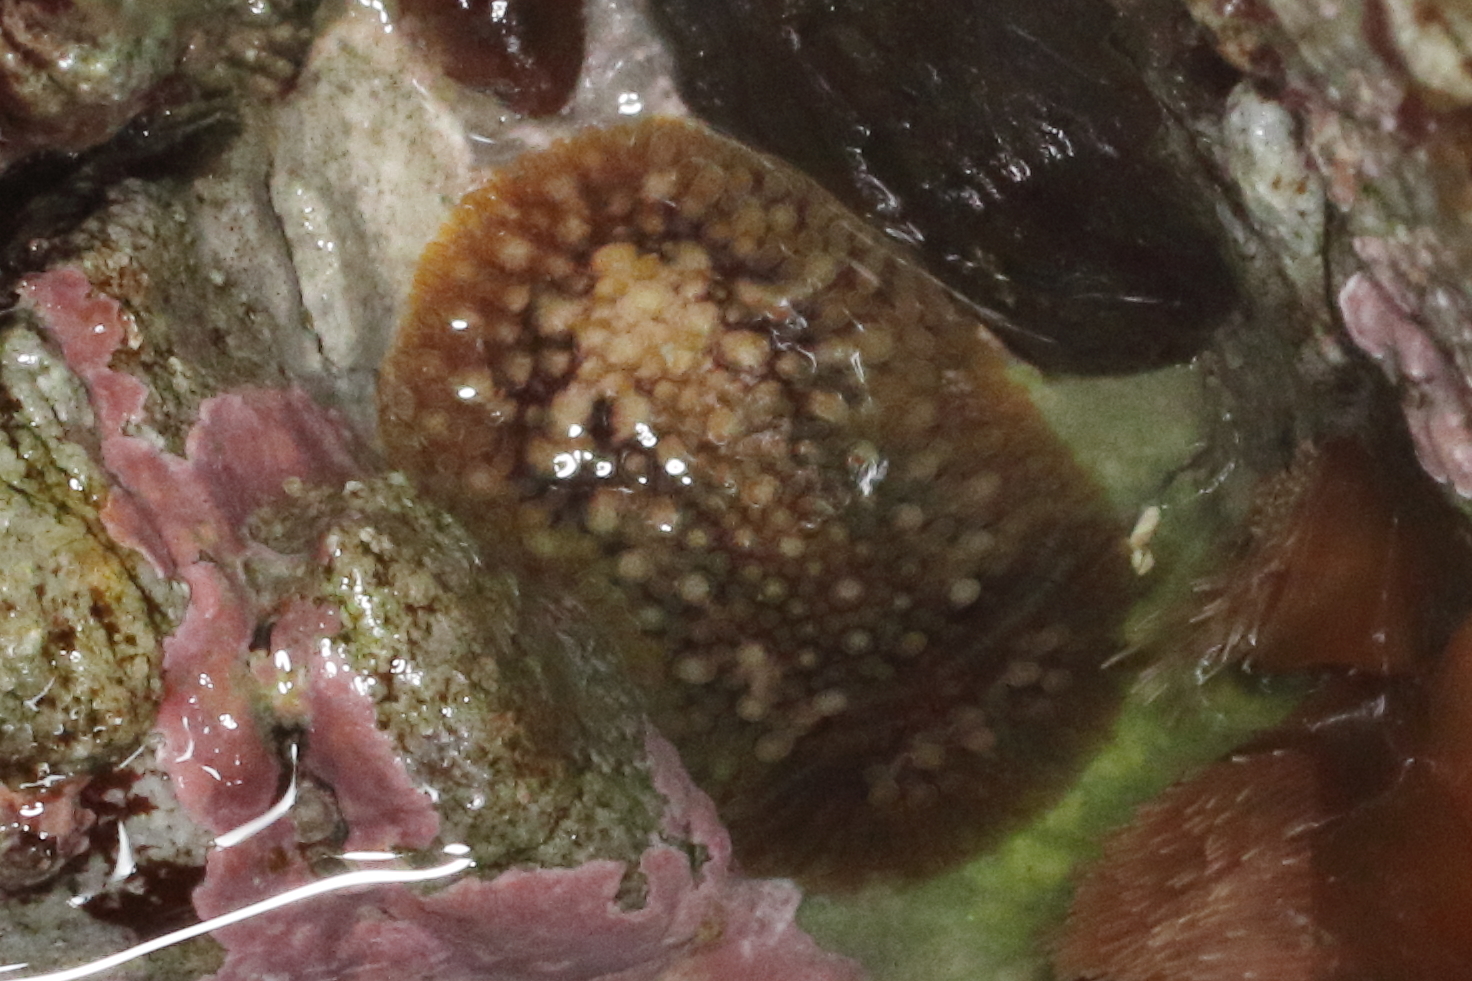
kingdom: Animalia
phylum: Mollusca
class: Gastropoda
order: Nudibranchia
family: Onchidorididae
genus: Onchidoris
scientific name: Onchidoris bilamellata
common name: Barnacle-eating onchidoris
